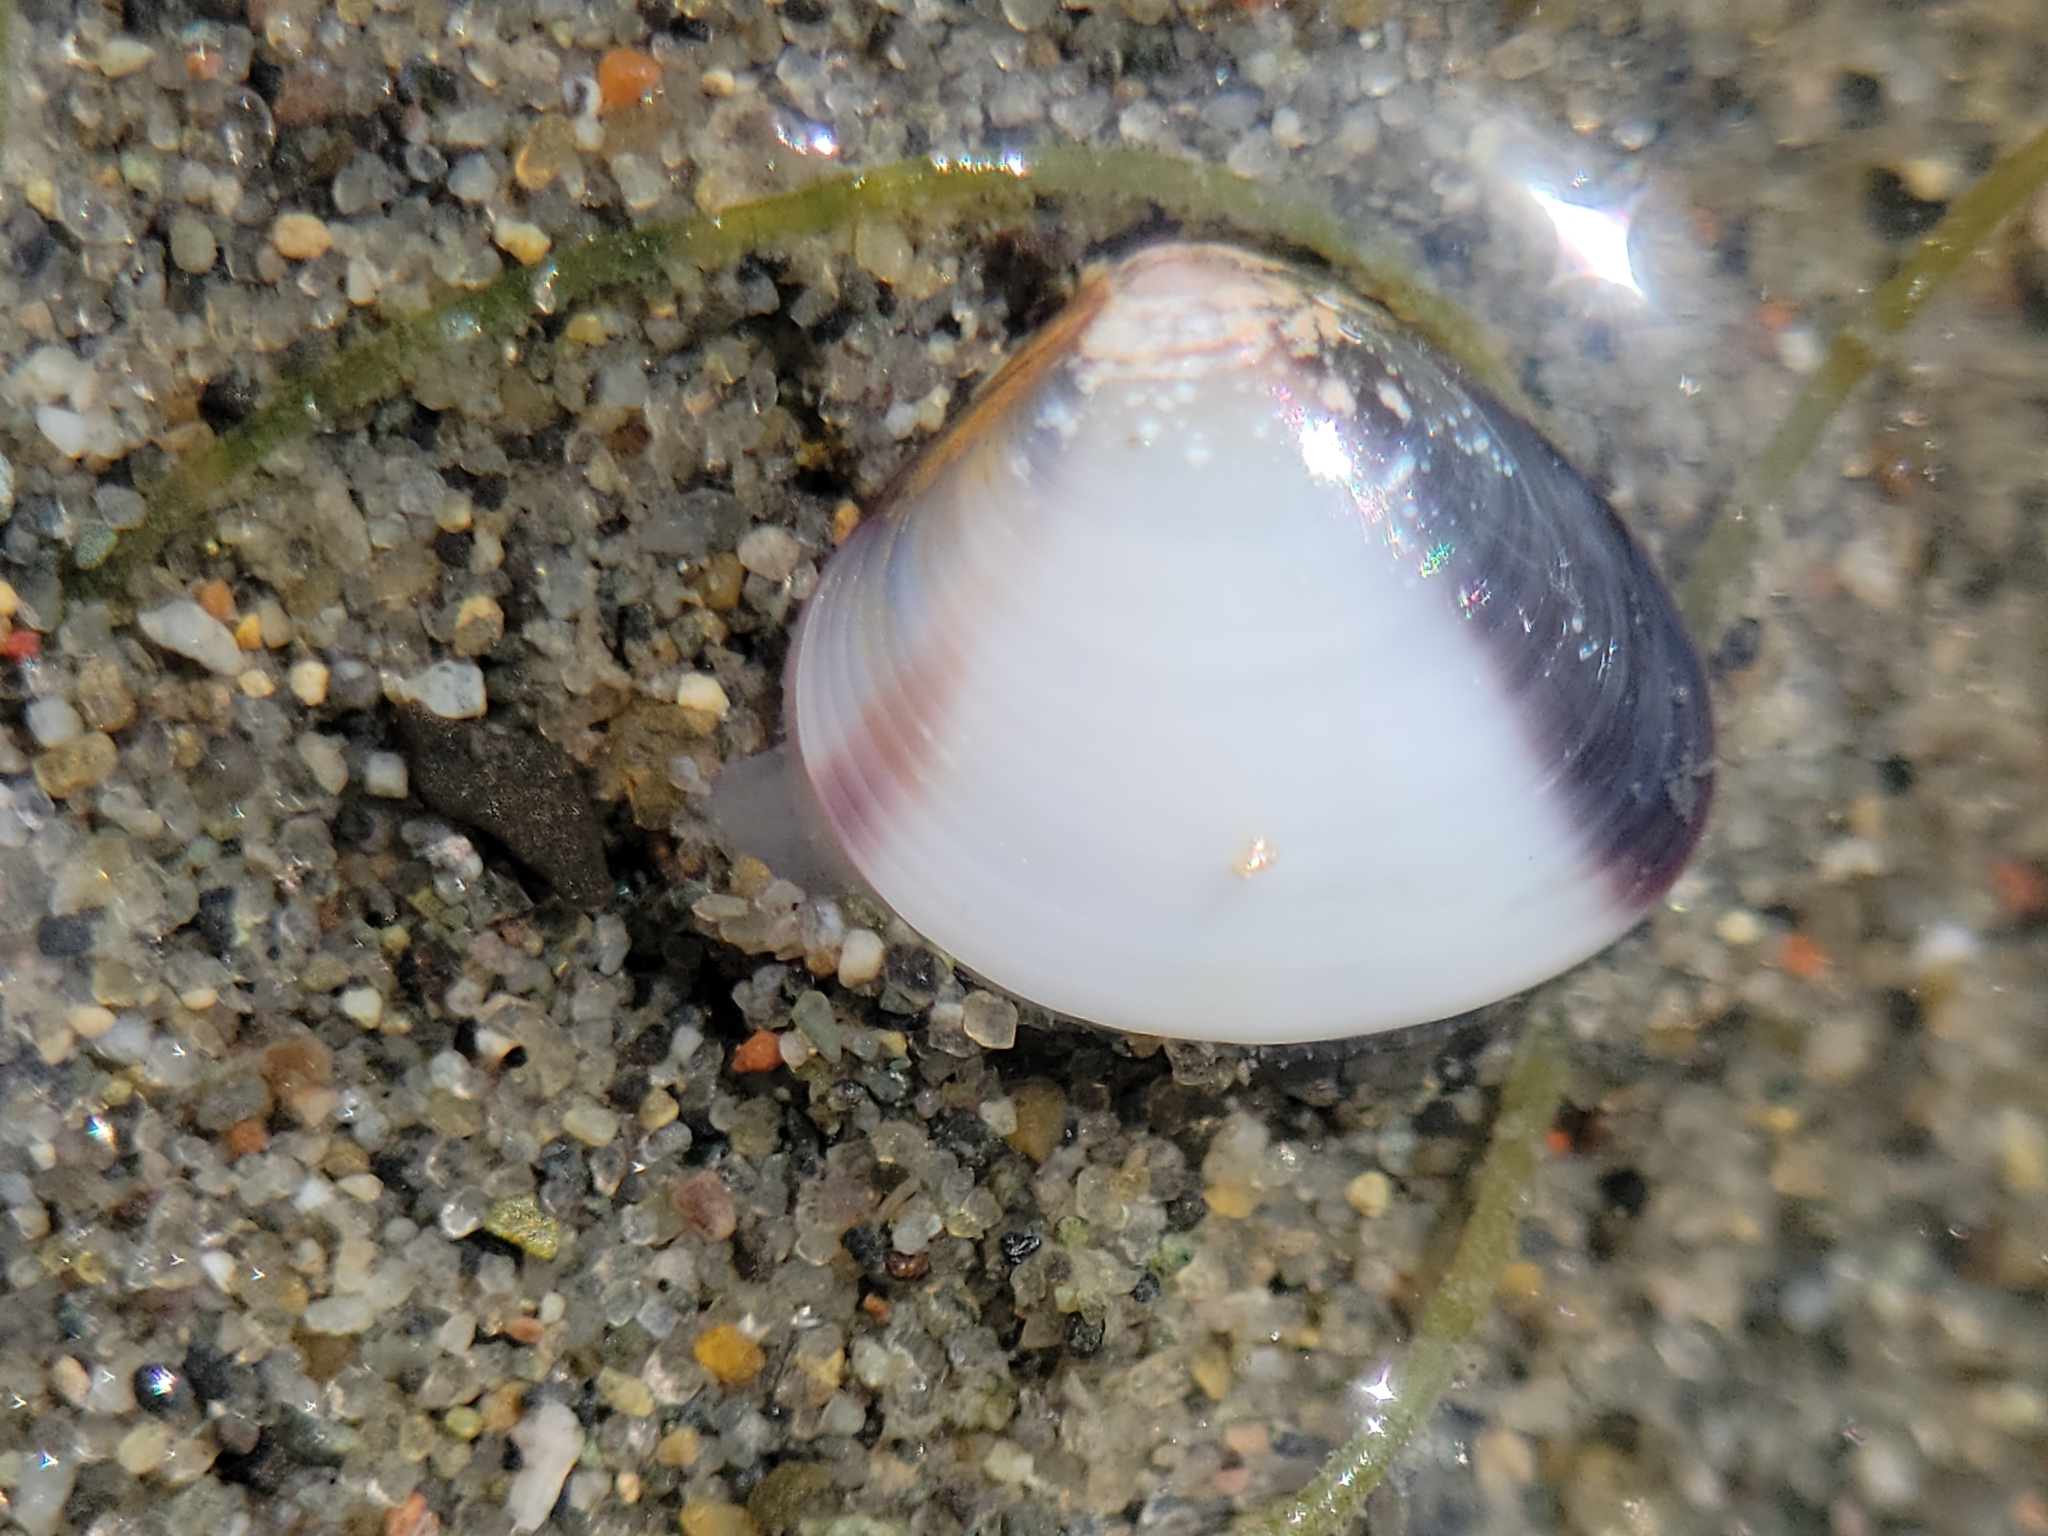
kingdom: Animalia
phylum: Mollusca
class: Bivalvia
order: Venerida
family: Veneridae
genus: Nutricola
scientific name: Nutricola tantilla
